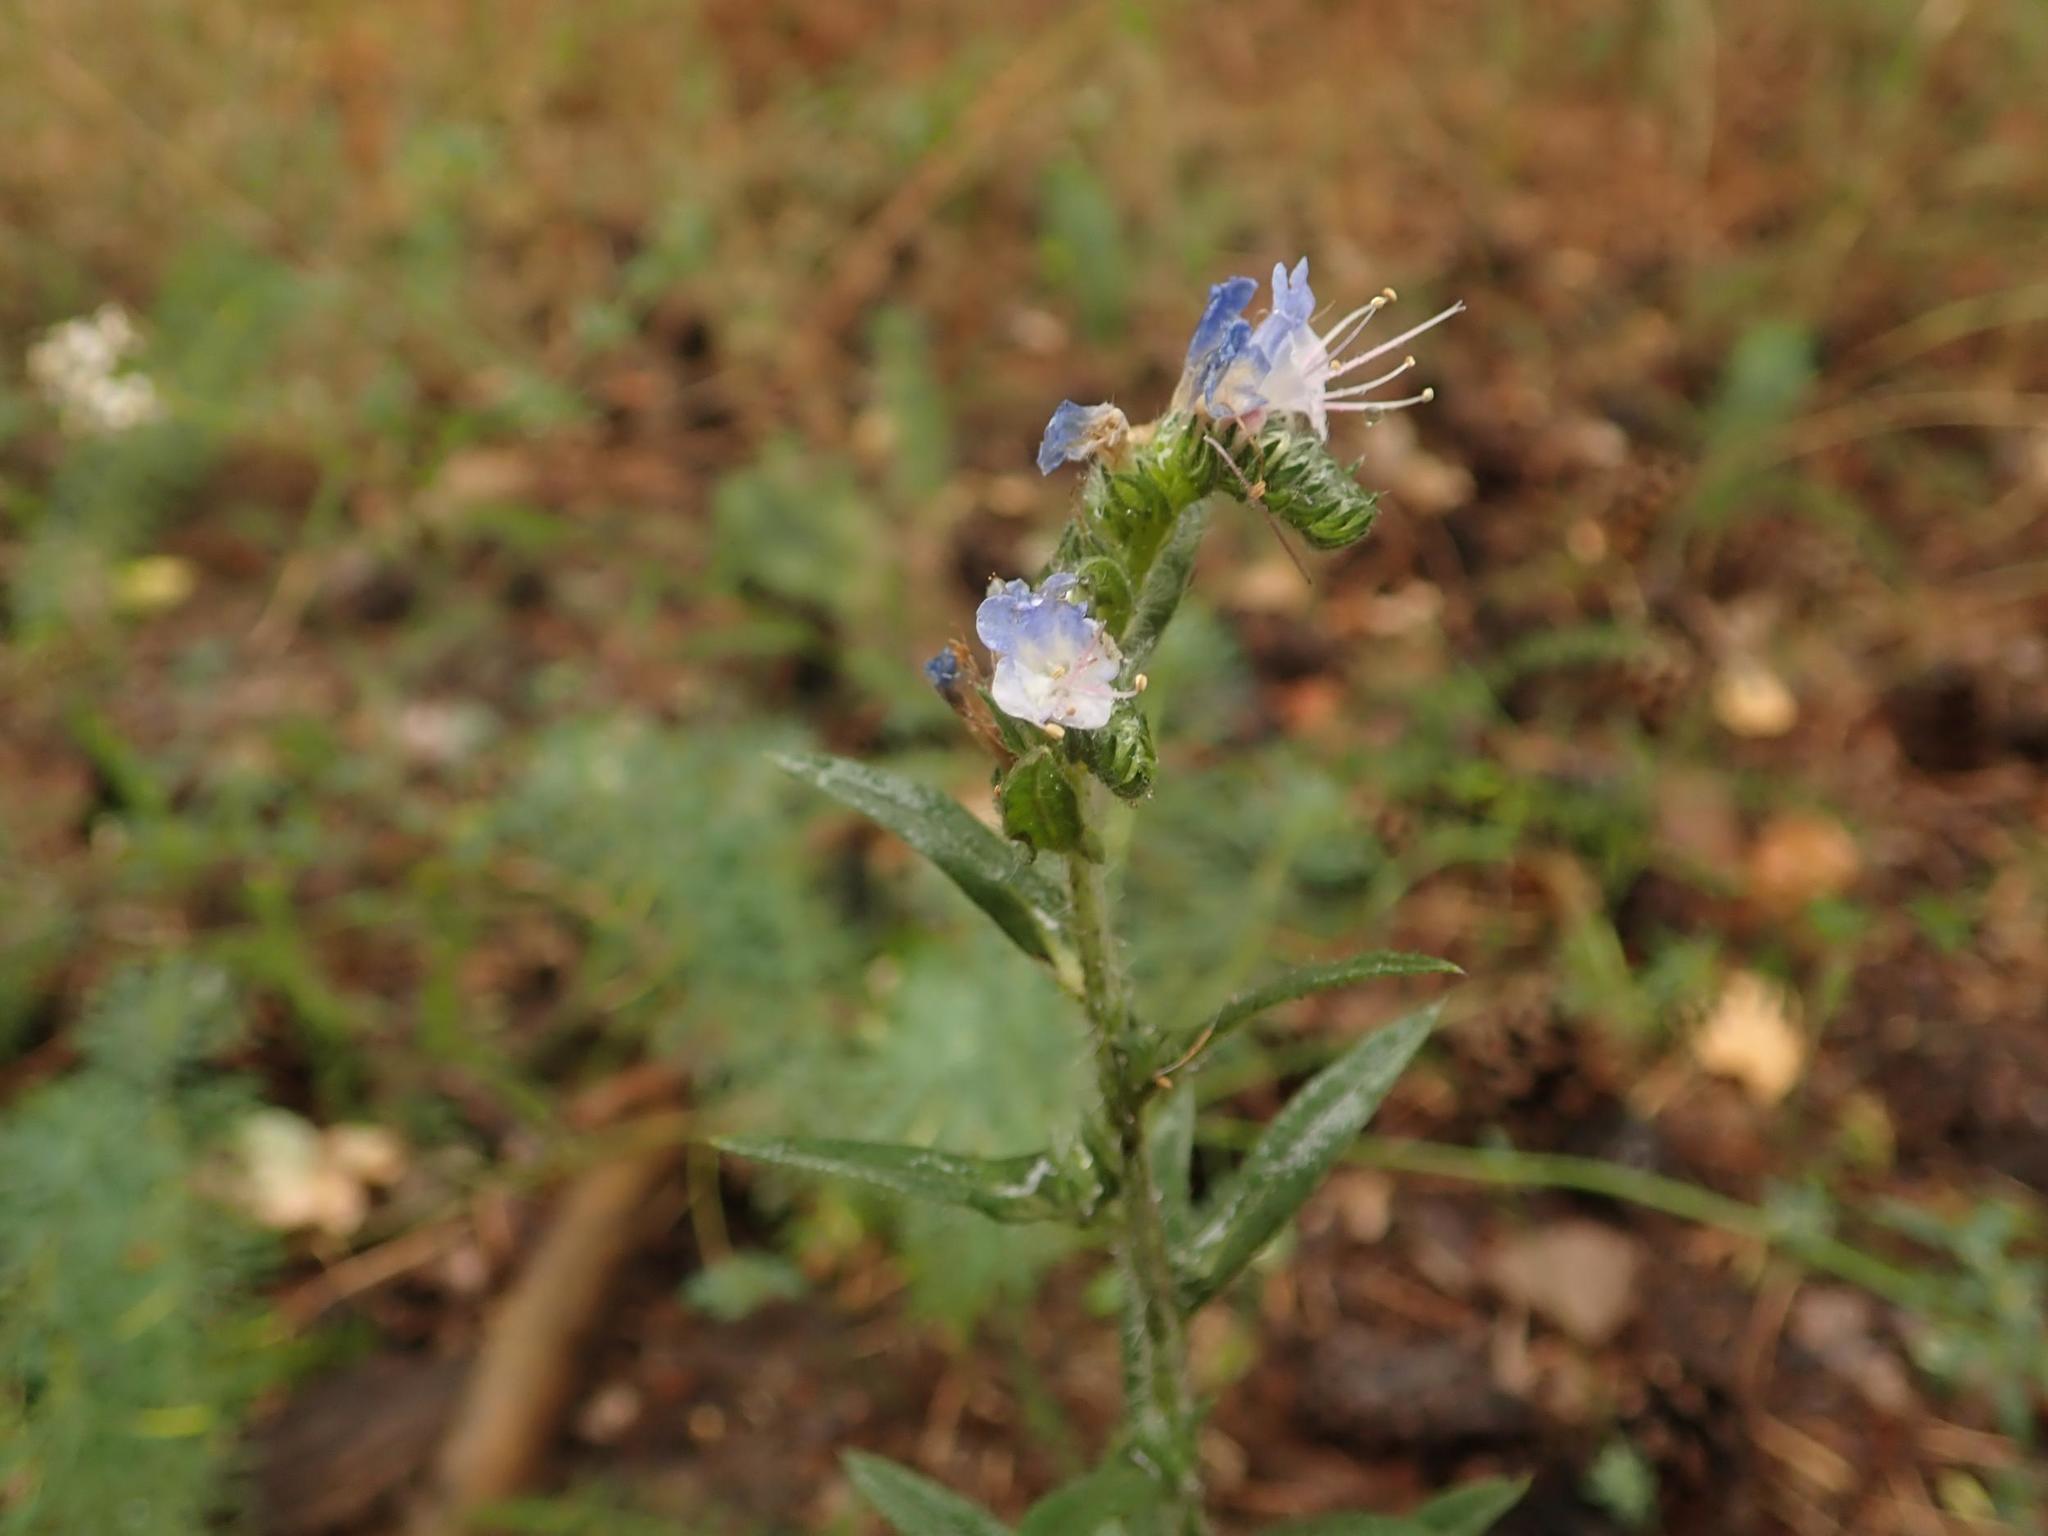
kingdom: Plantae
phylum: Tracheophyta
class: Magnoliopsida
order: Boraginales
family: Boraginaceae
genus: Echium
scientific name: Echium vulgare
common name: Common viper's bugloss
